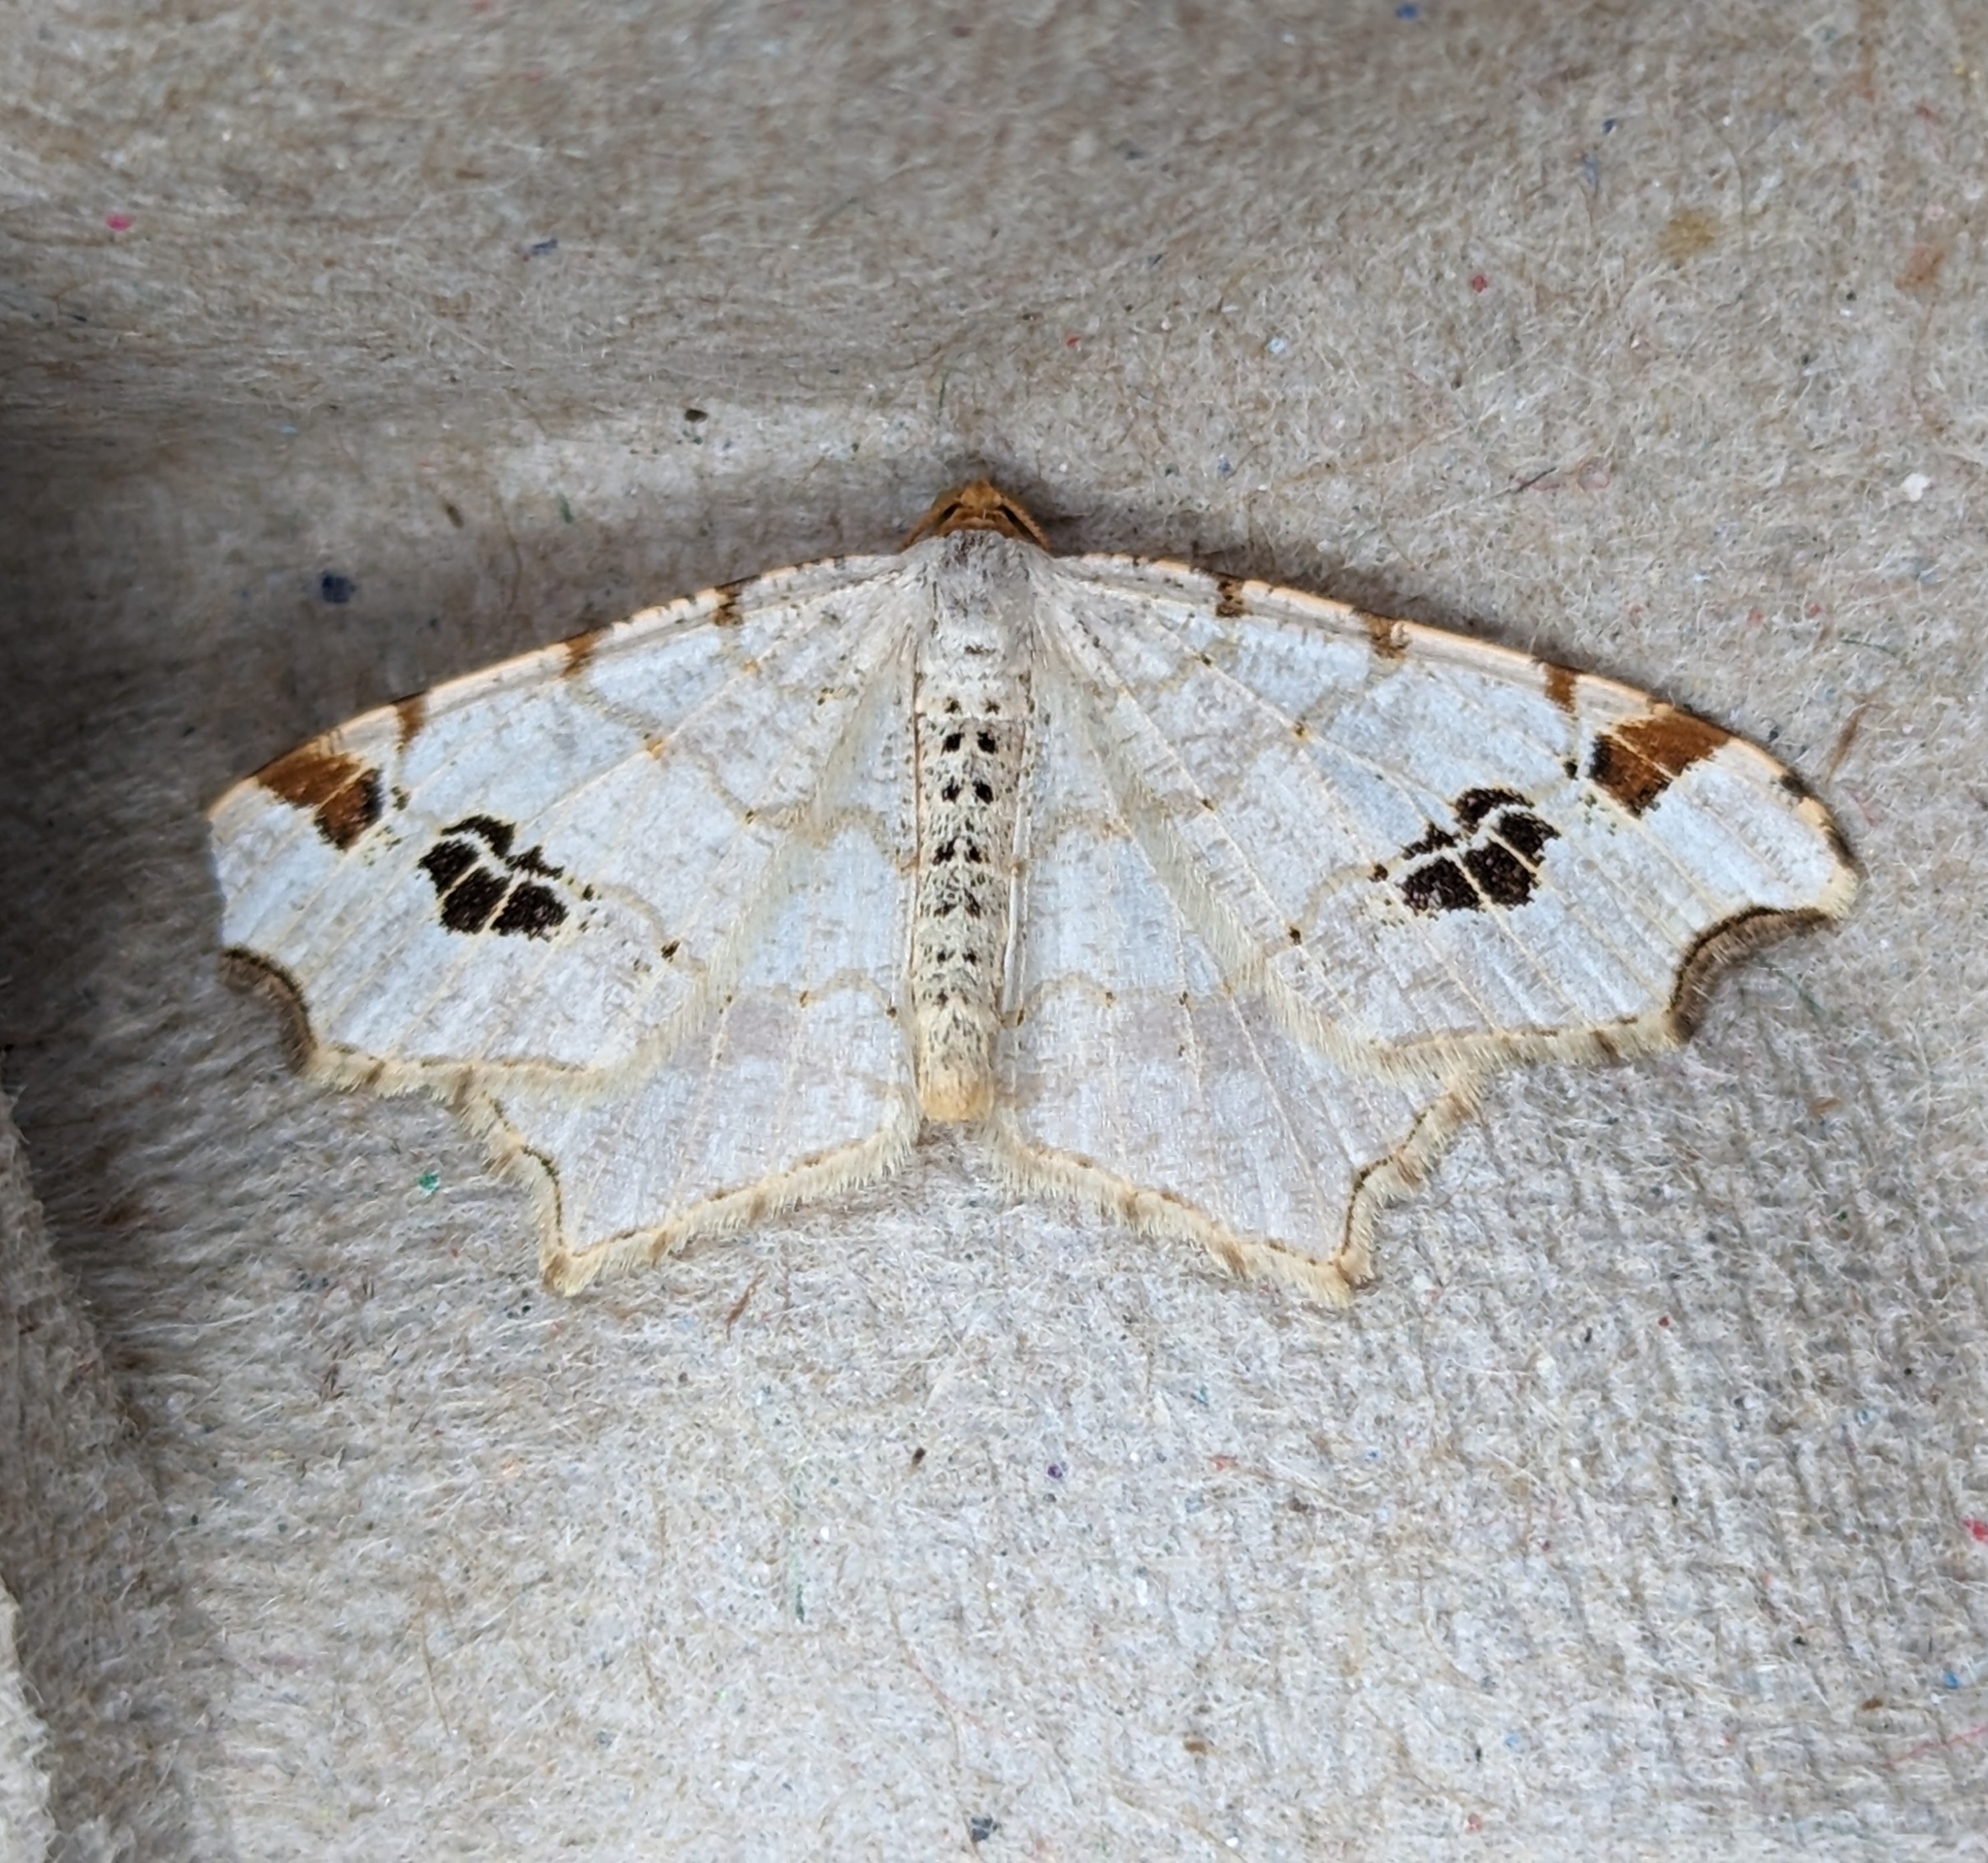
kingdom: Animalia
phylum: Arthropoda
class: Insecta
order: Lepidoptera
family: Geometridae
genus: Macaria
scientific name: Macaria ulsterata
